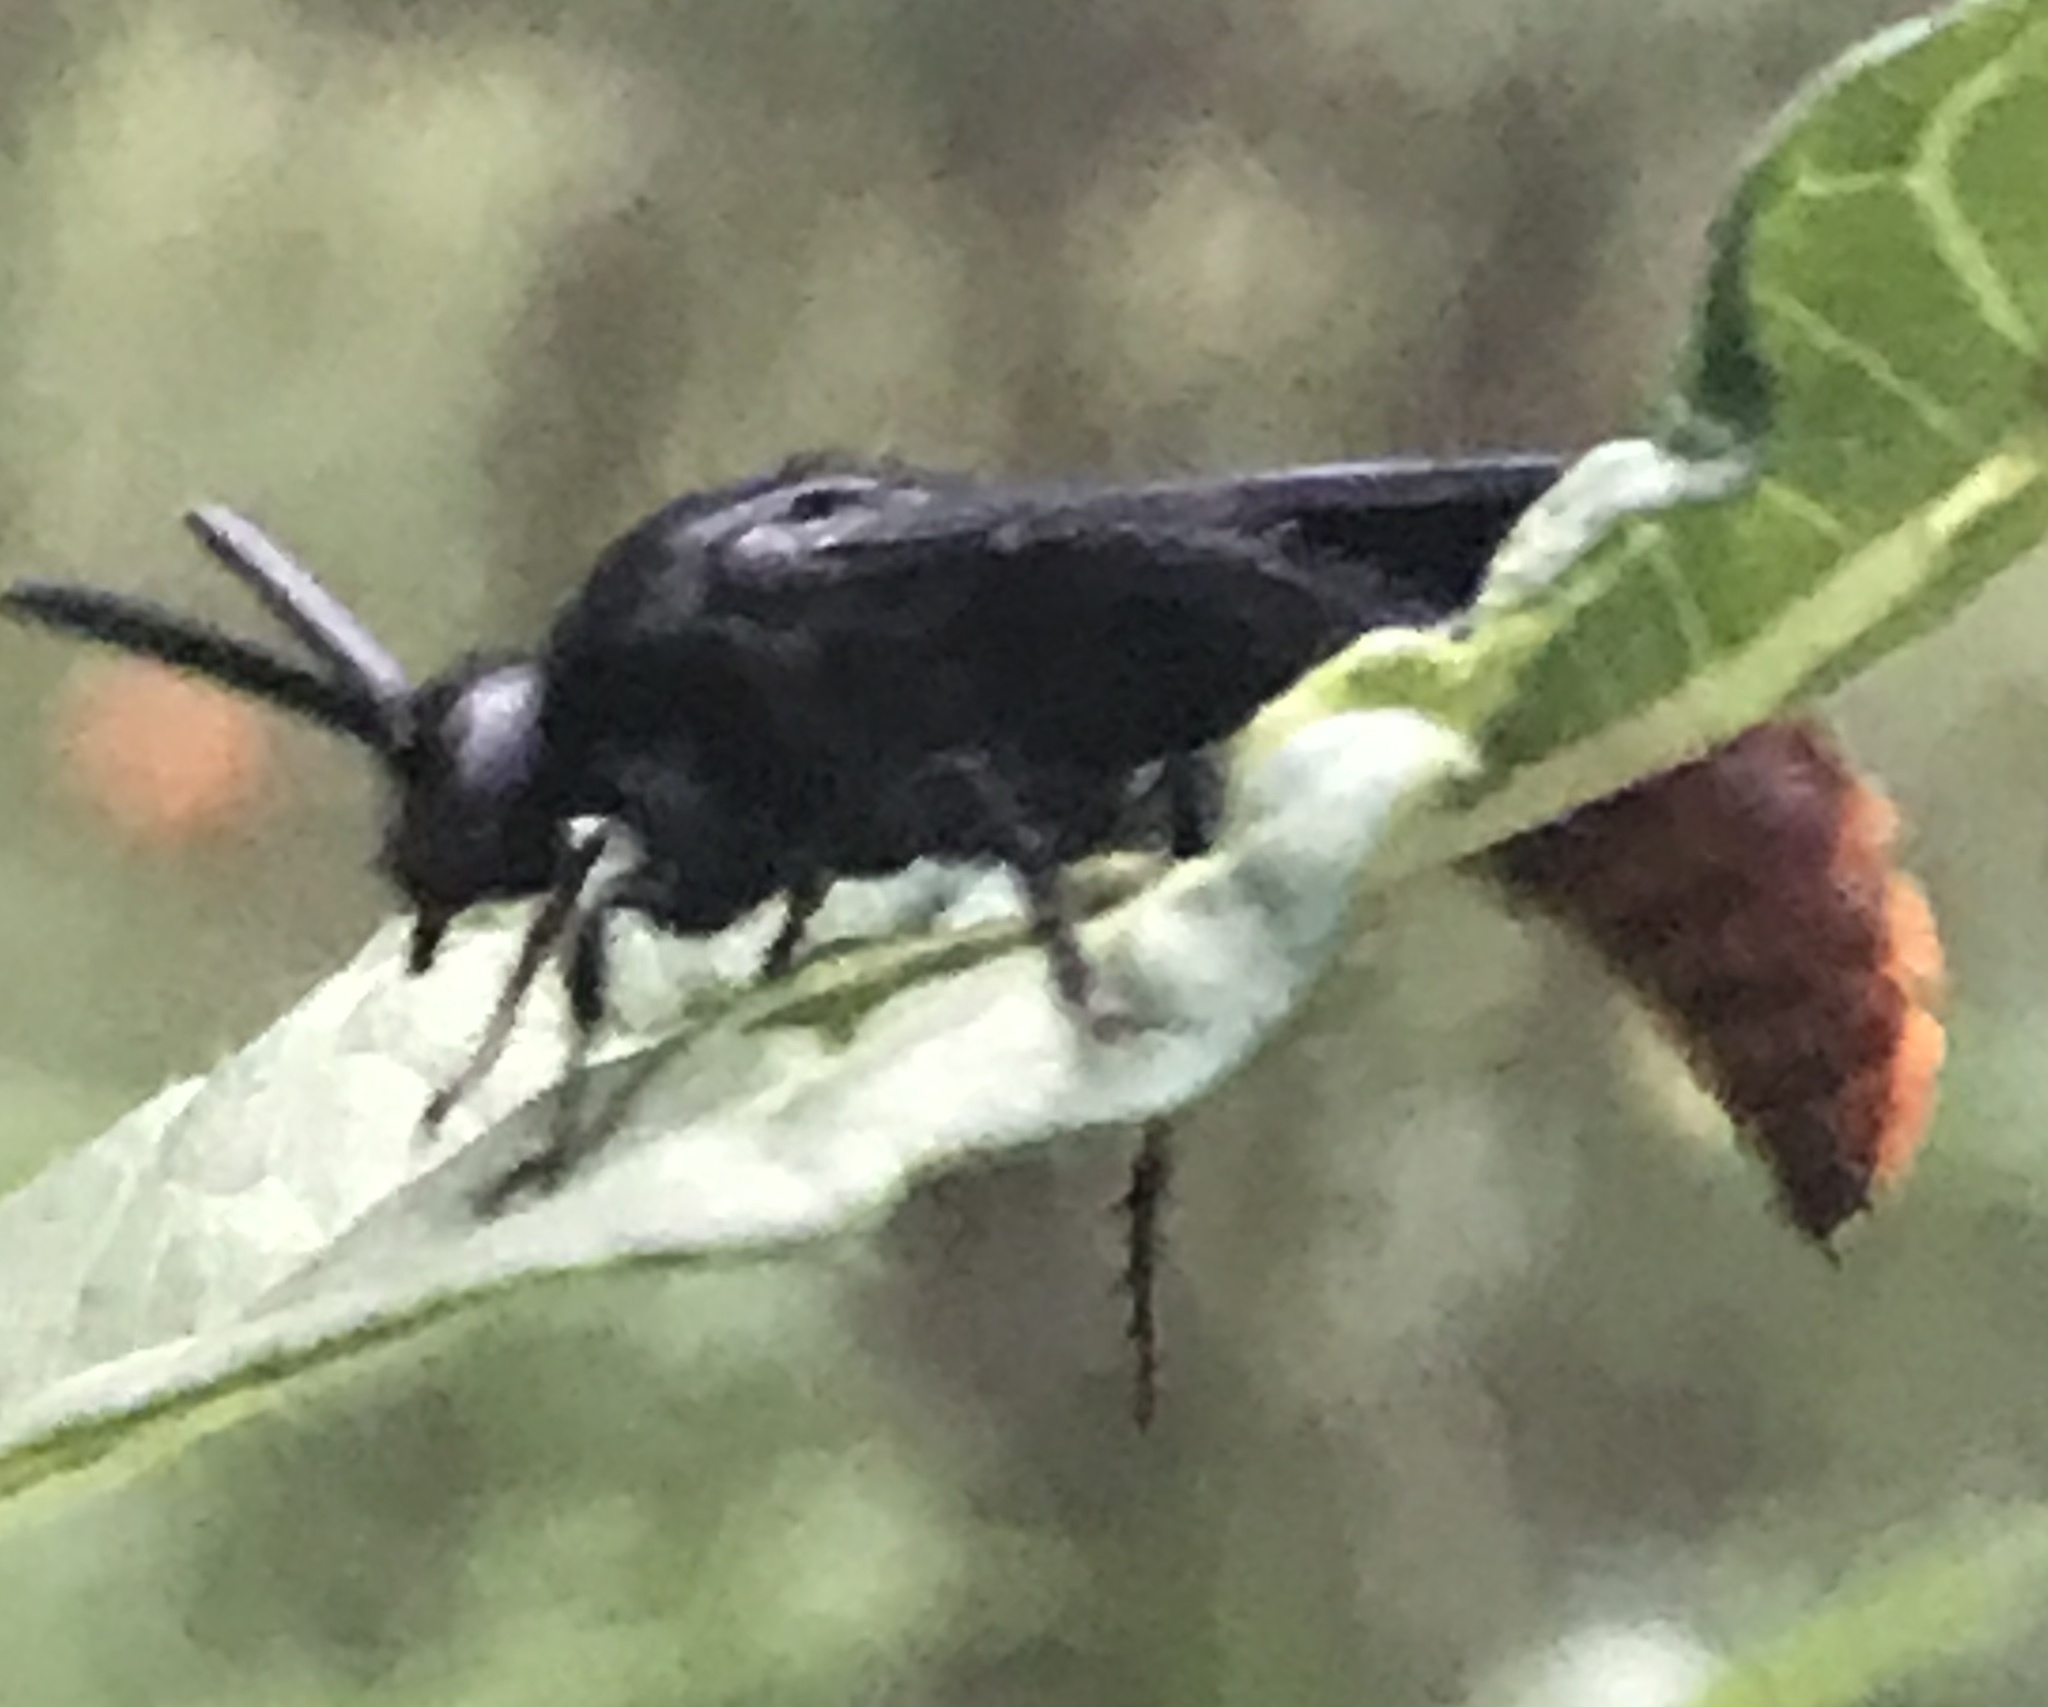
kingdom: Animalia
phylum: Arthropoda
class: Insecta
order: Hymenoptera
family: Scoliidae
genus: Scolia
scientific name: Scolia dubia
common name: Blue-winged scoliid wasp
